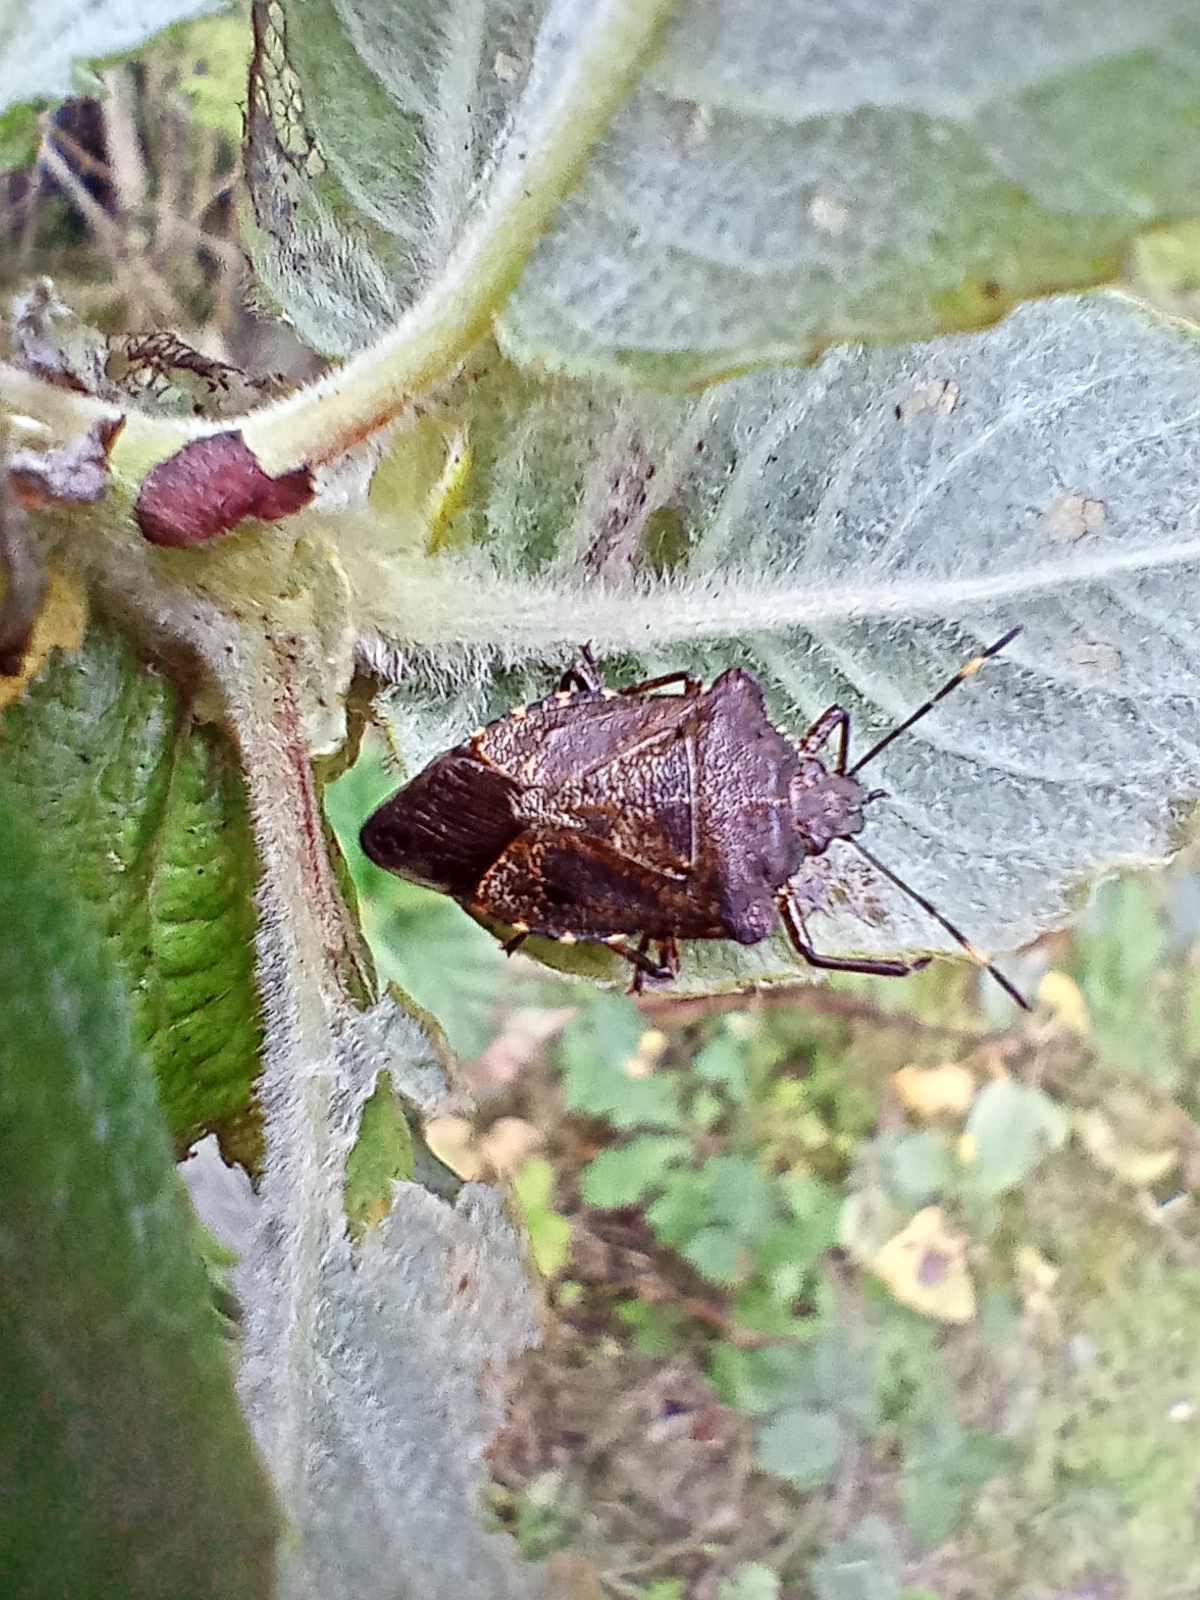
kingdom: Animalia
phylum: Arthropoda
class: Insecta
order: Hemiptera
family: Pentatomidae
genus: Troilus
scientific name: Troilus luridus
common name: Bronze shieldbug
